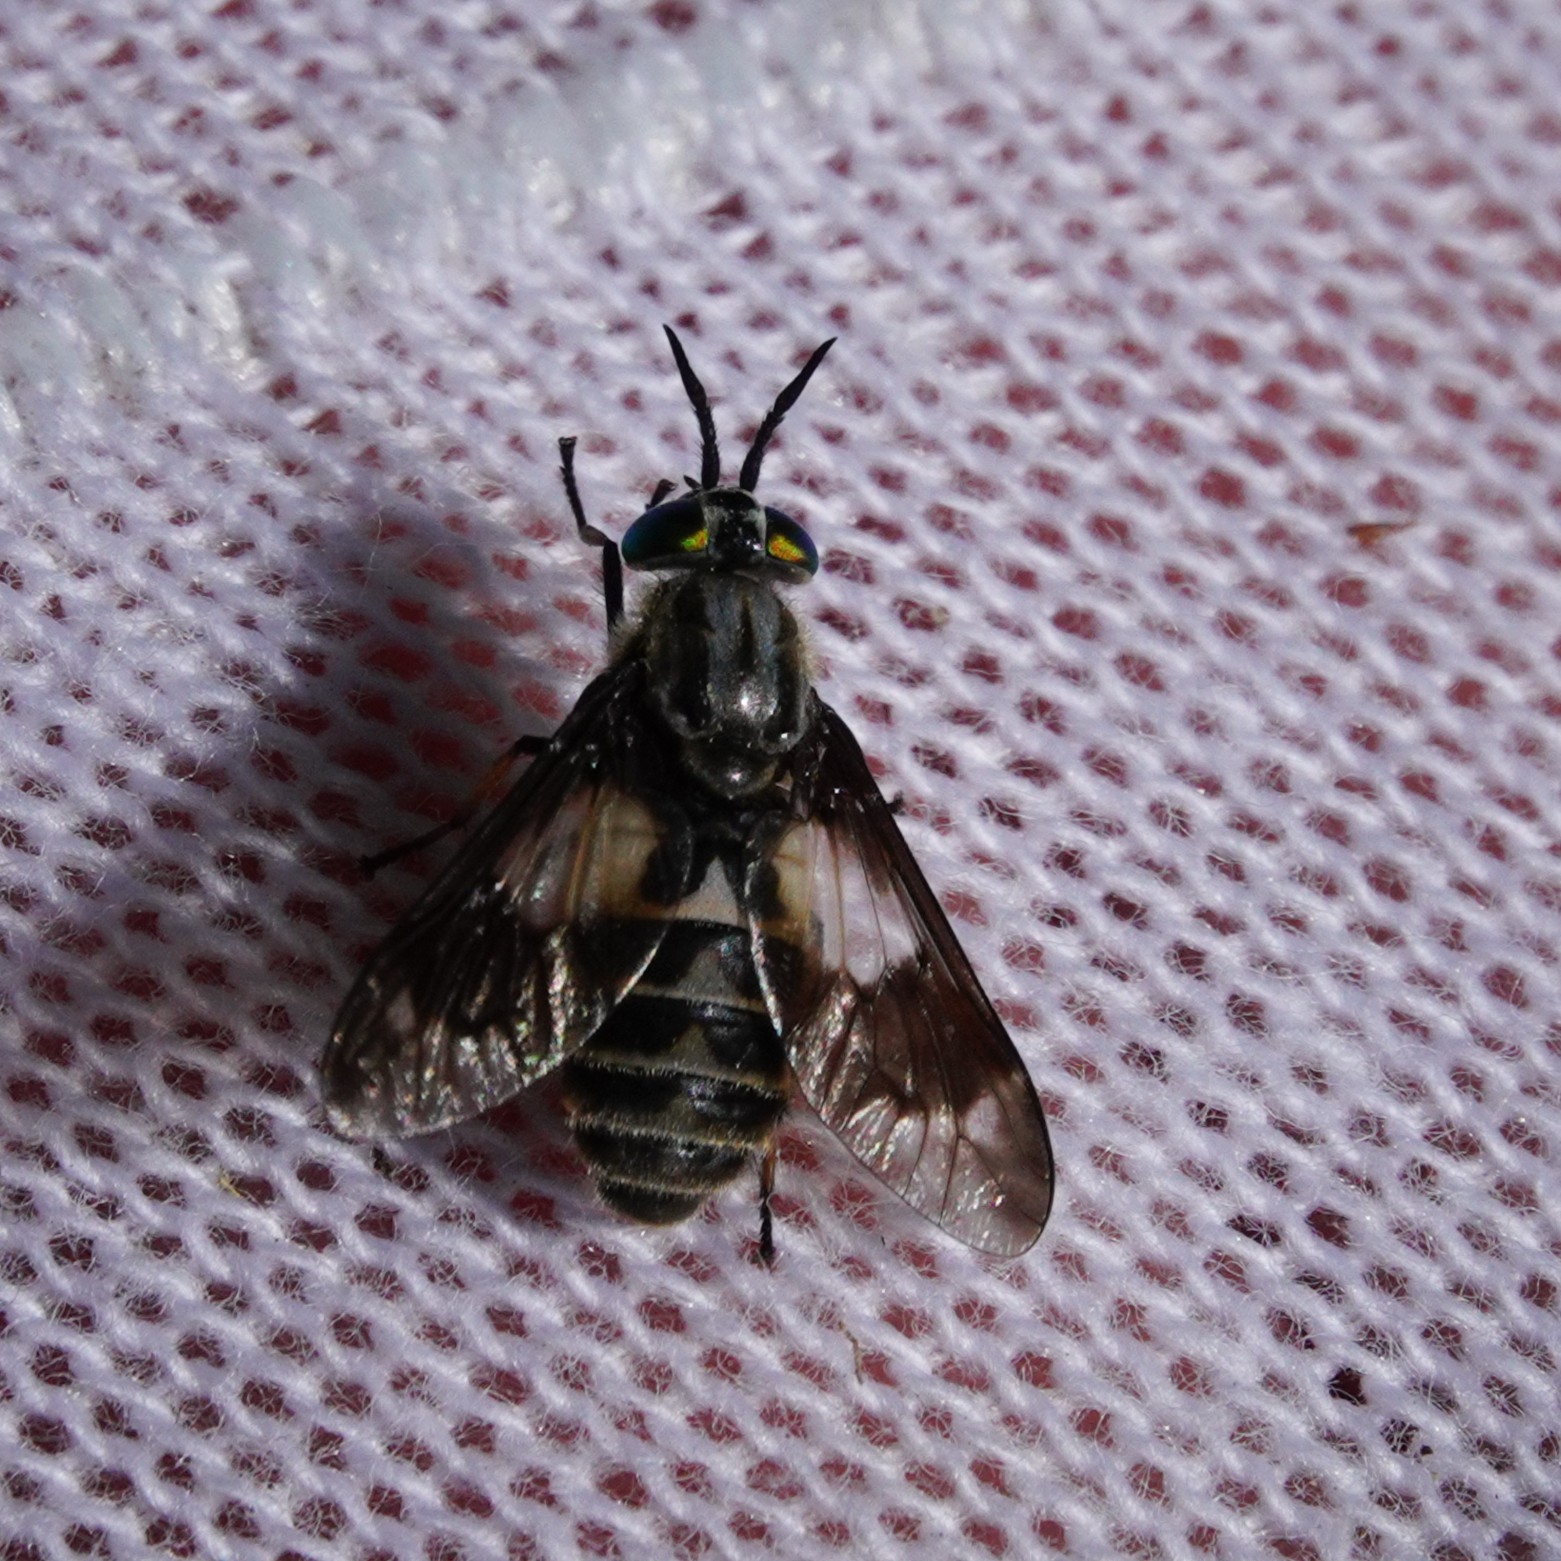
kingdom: Animalia
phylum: Arthropoda
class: Insecta
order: Diptera
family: Tabanidae
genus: Chrysops
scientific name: Chrysops relictus
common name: Twin-lobed deerfly
